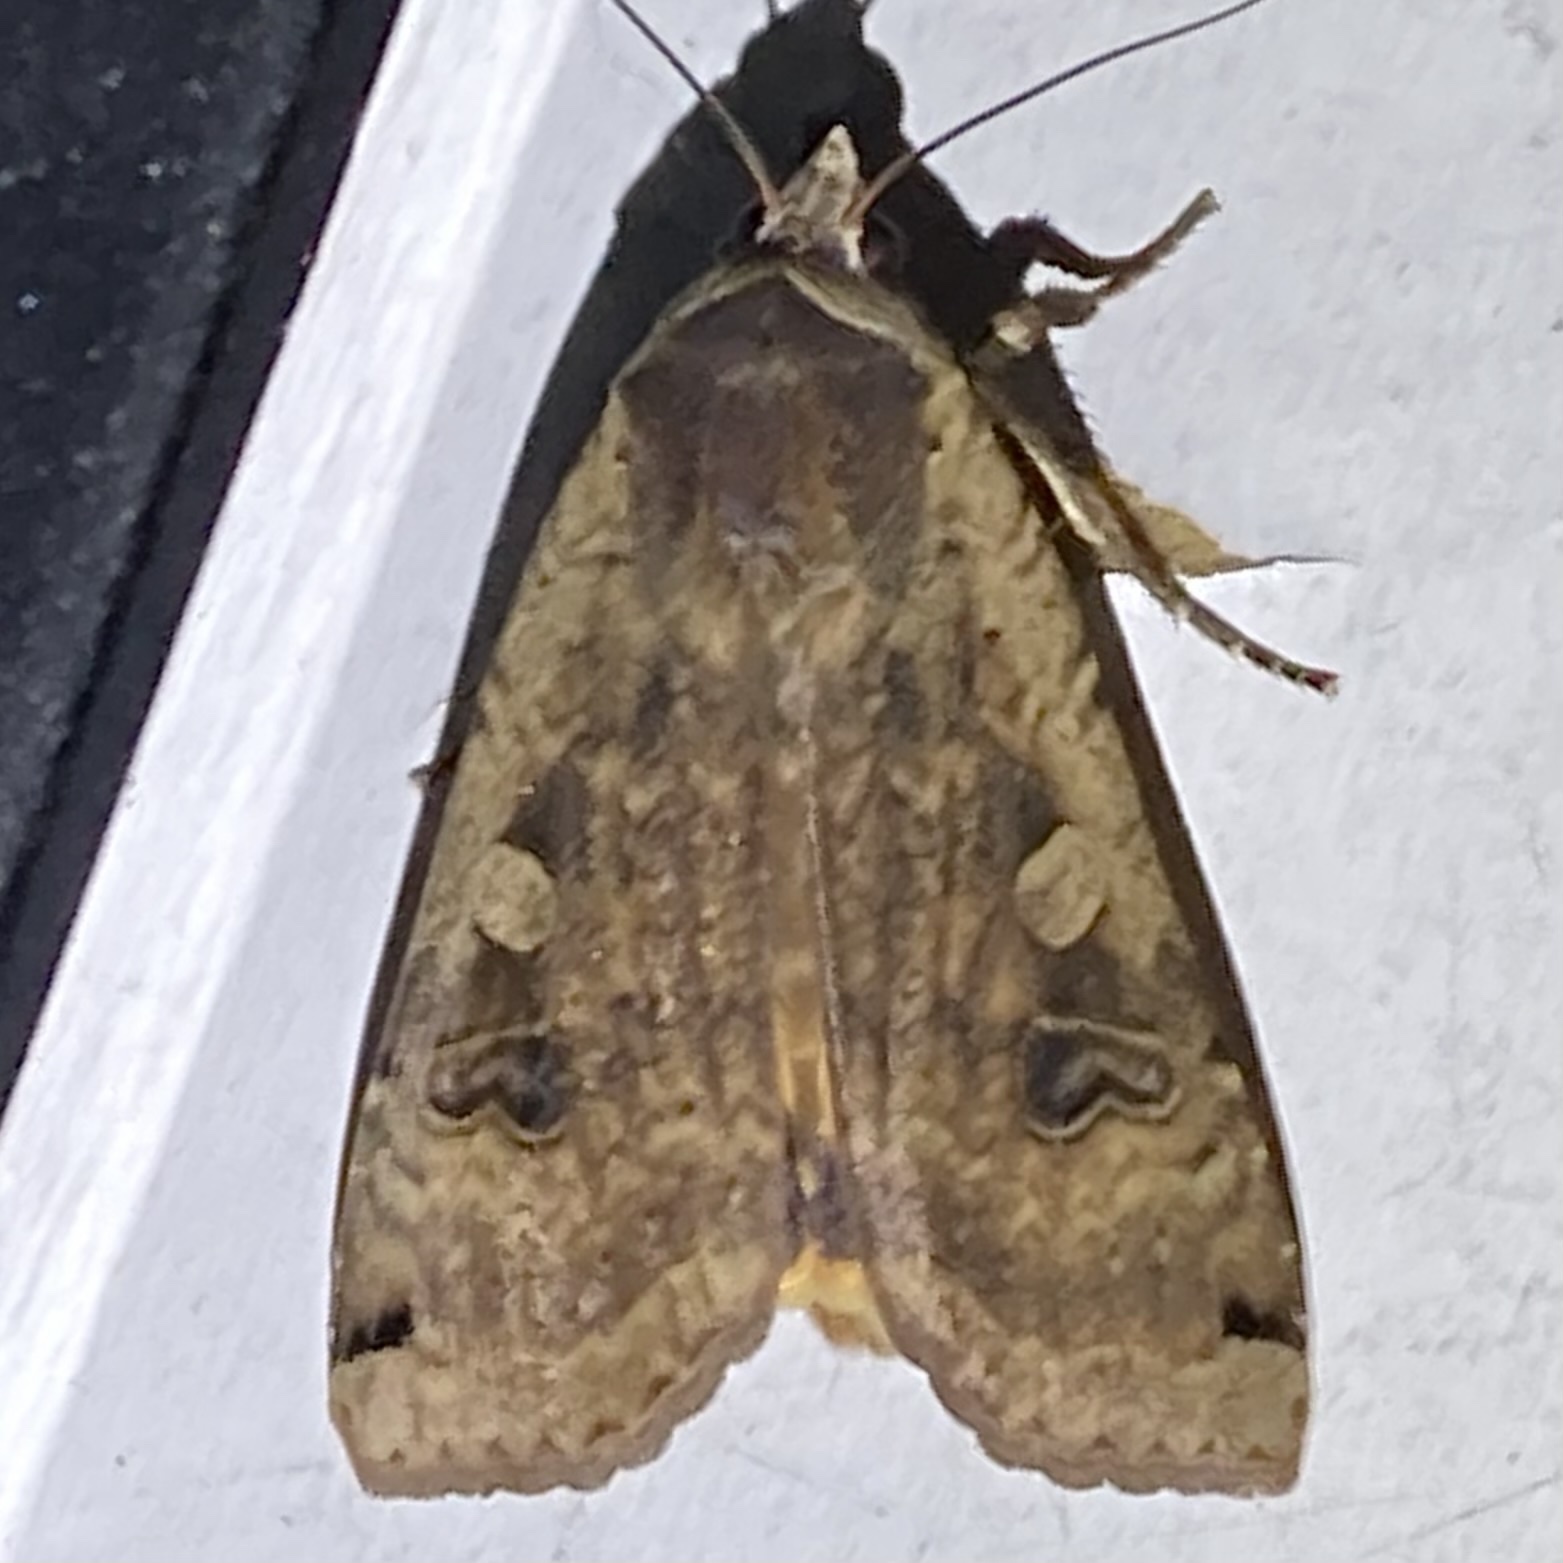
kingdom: Animalia
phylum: Arthropoda
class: Insecta
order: Lepidoptera
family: Noctuidae
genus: Noctua
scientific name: Noctua pronuba
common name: Large yellow underwing
